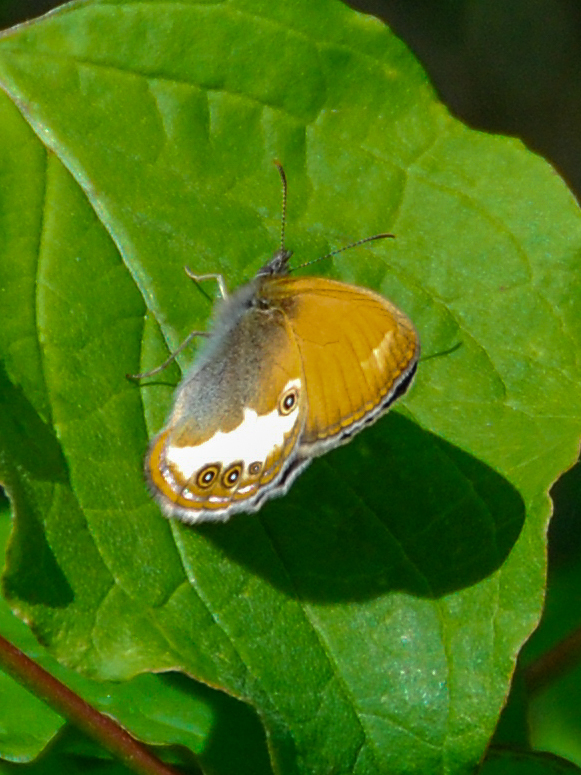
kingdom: Animalia
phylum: Arthropoda
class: Insecta
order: Lepidoptera
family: Nymphalidae
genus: Coenonympha
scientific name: Coenonympha arcania
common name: Pearly heath
